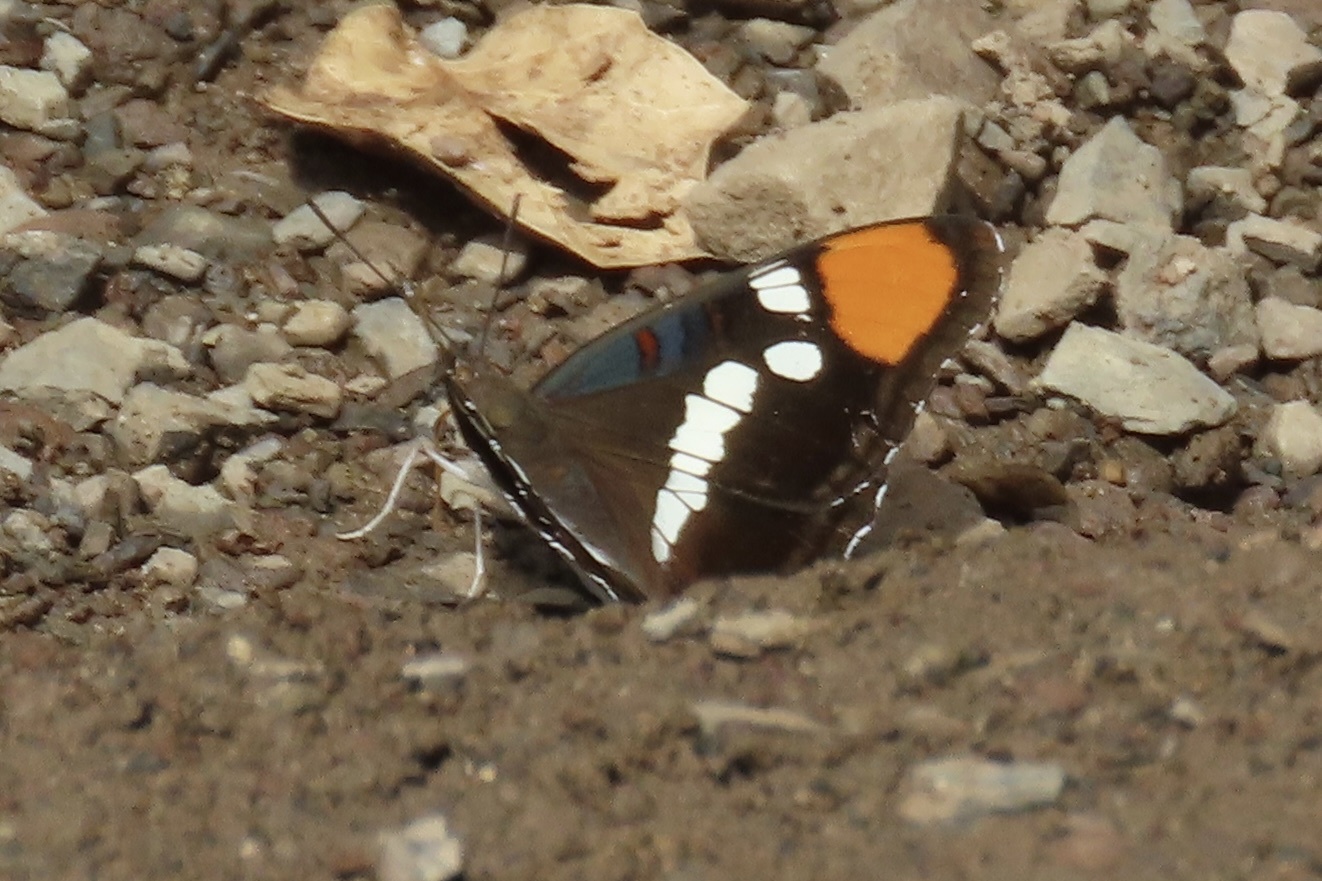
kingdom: Animalia
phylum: Arthropoda
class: Insecta
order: Lepidoptera
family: Nymphalidae
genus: Limenitis
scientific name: Limenitis bredowii
